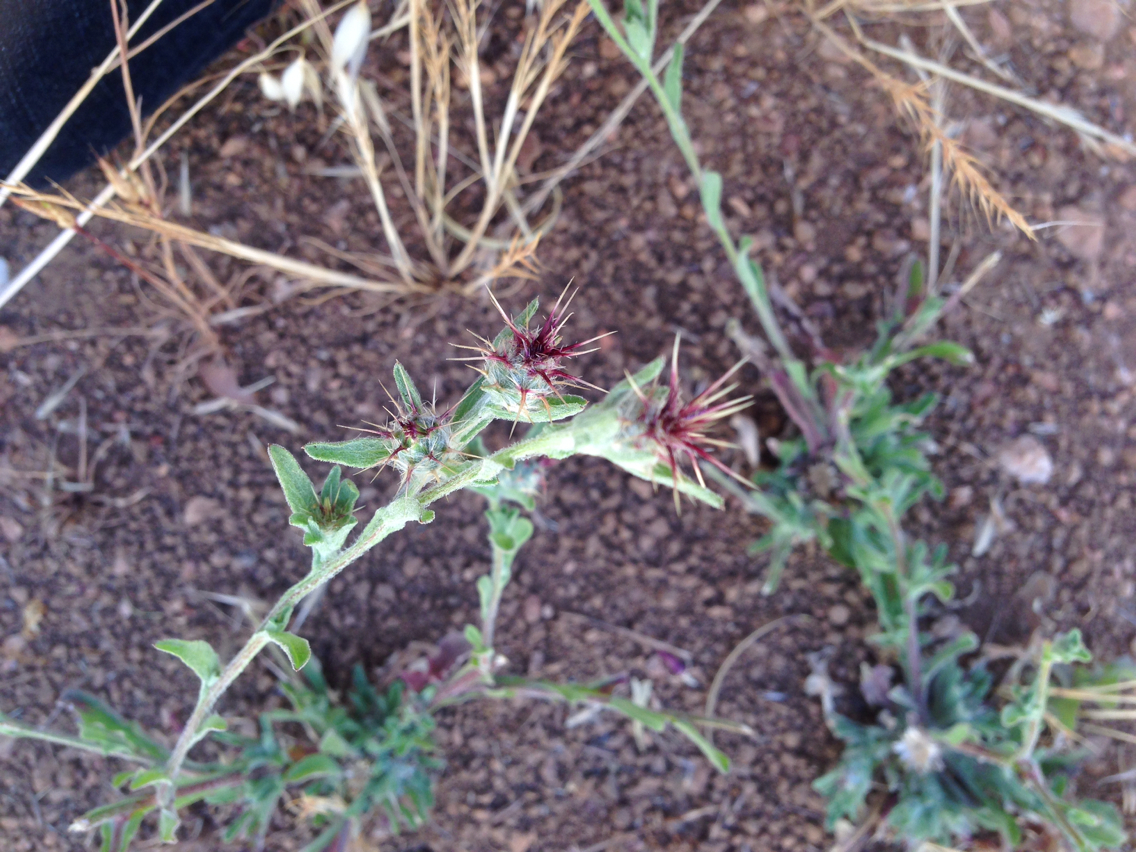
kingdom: Plantae
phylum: Tracheophyta
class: Magnoliopsida
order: Asterales
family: Asteraceae
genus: Centaurea
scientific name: Centaurea melitensis
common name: Maltese star-thistle
